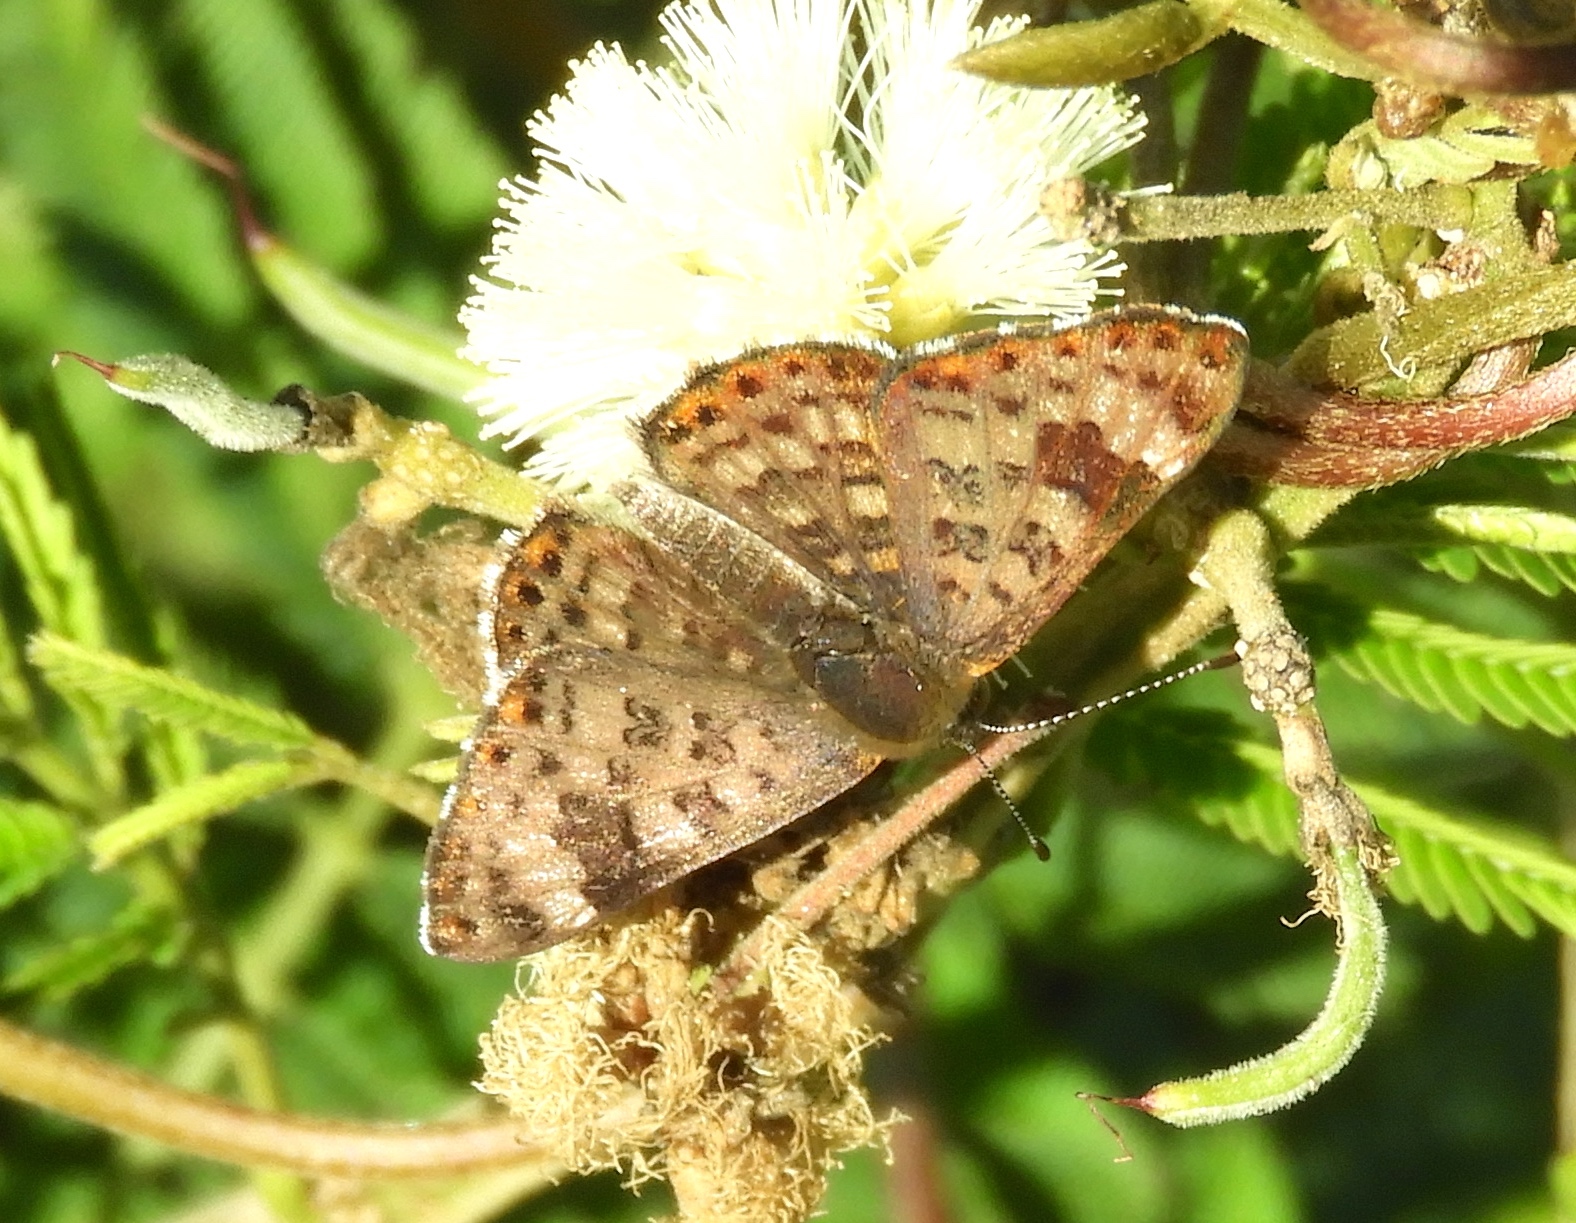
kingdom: Animalia
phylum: Arthropoda
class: Insecta
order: Lepidoptera
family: Riodinidae
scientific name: Riodinidae
